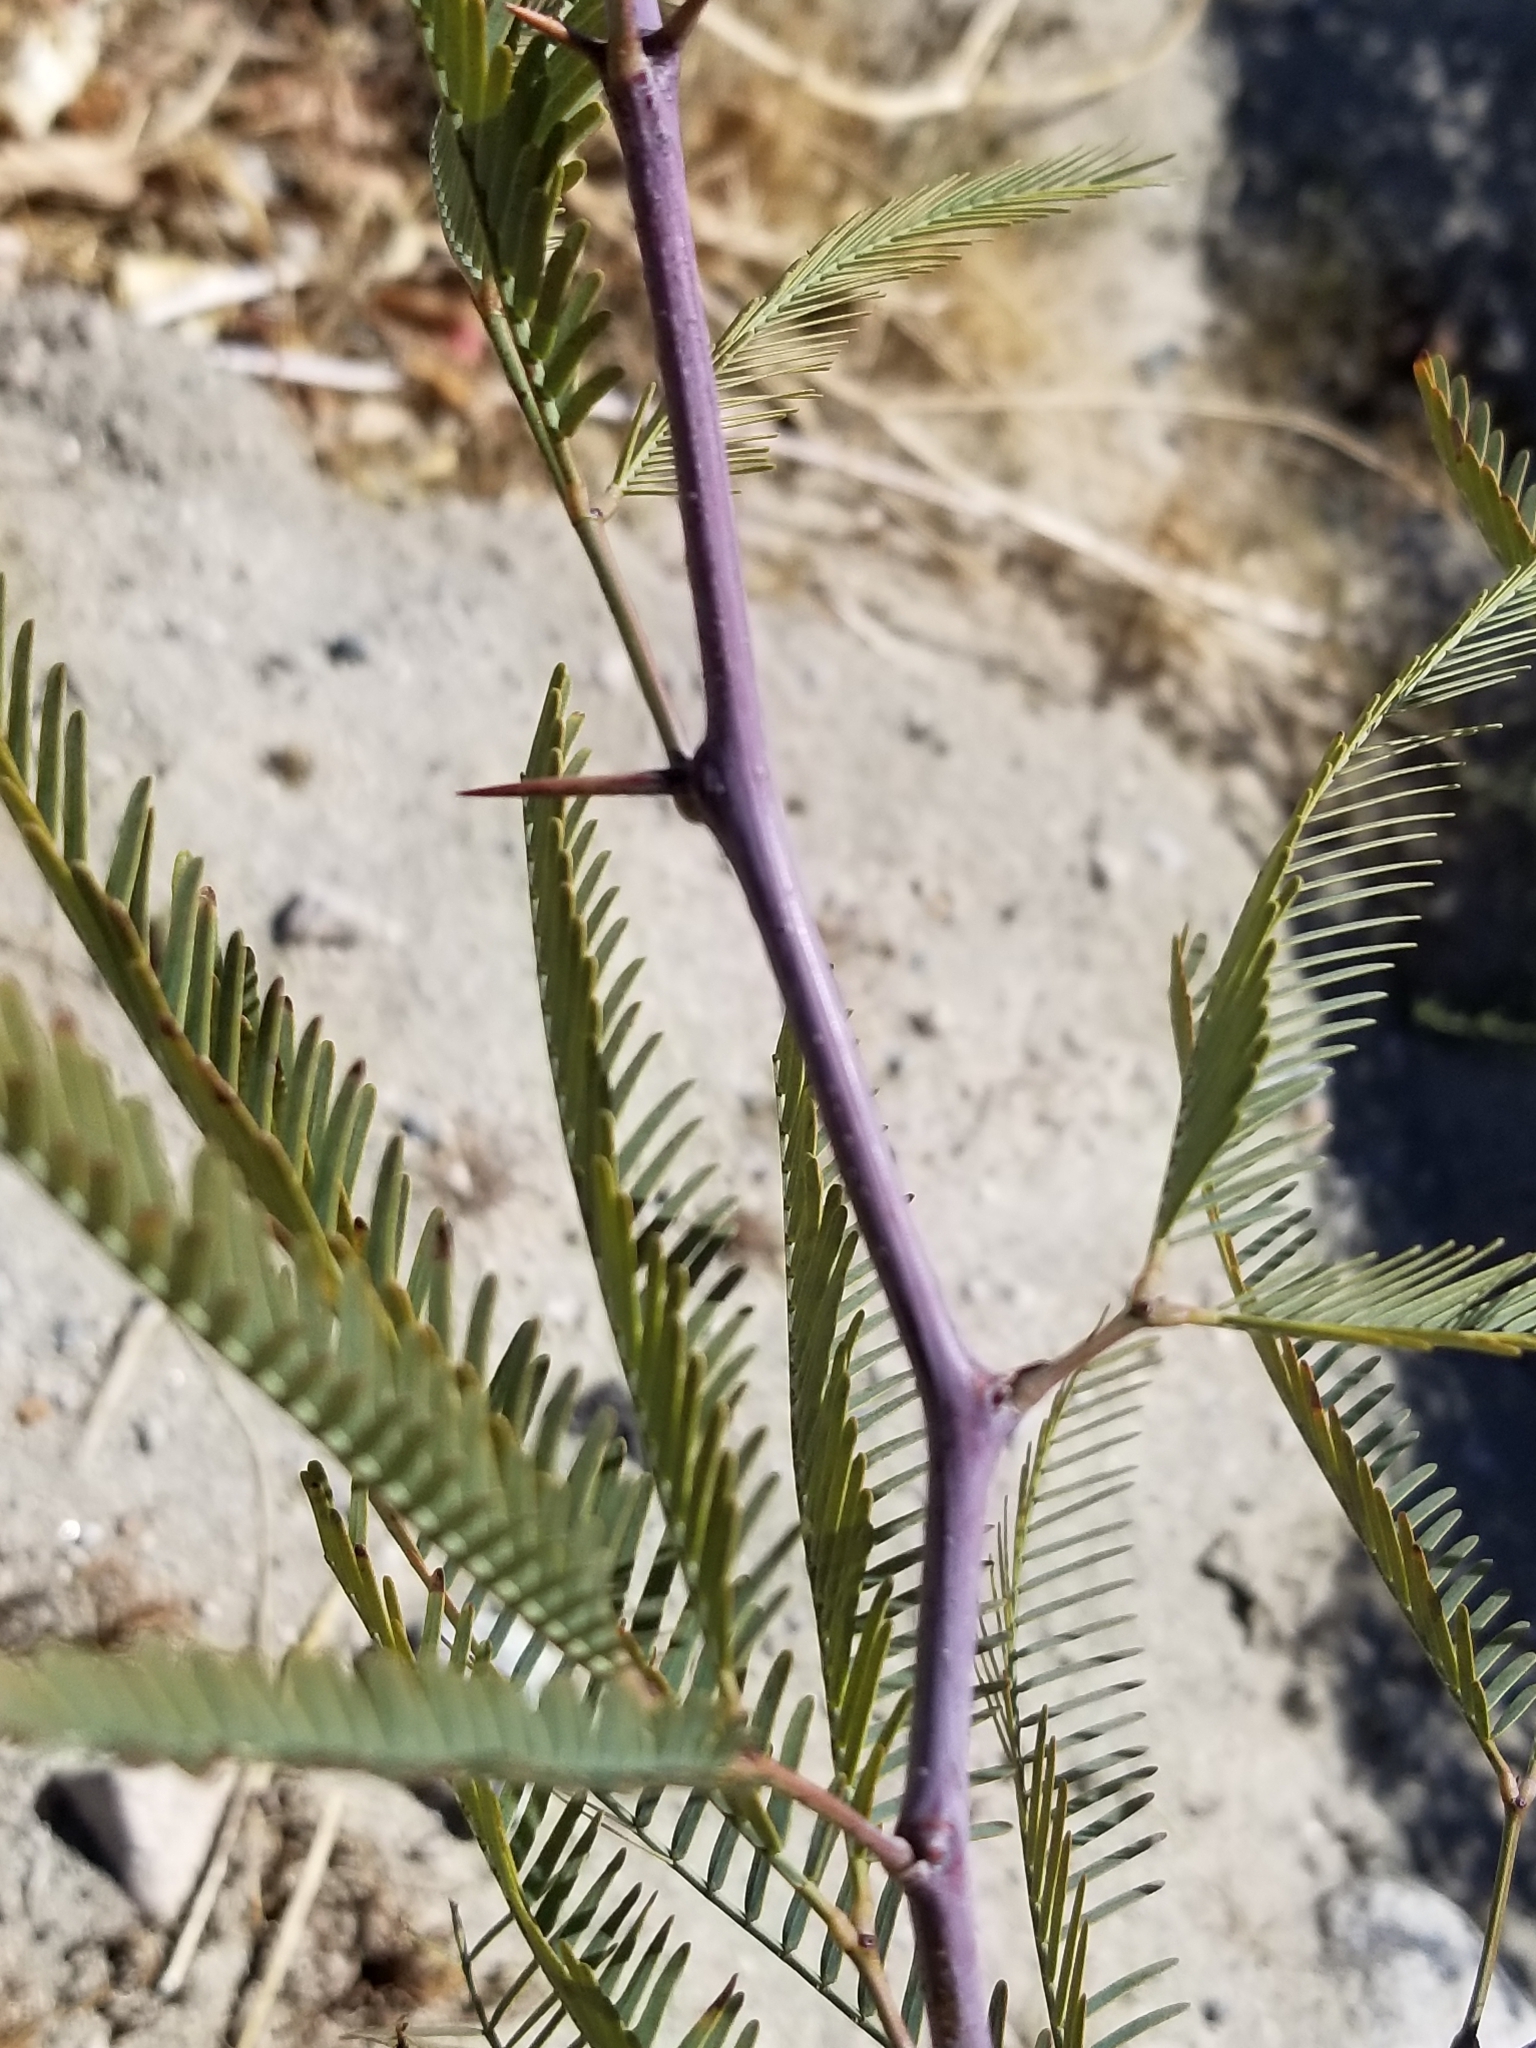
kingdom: Plantae
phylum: Tracheophyta
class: Magnoliopsida
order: Fabales
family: Fabaceae
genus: Prosopis
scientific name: Prosopis chilensis
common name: Chilean algarrobo
